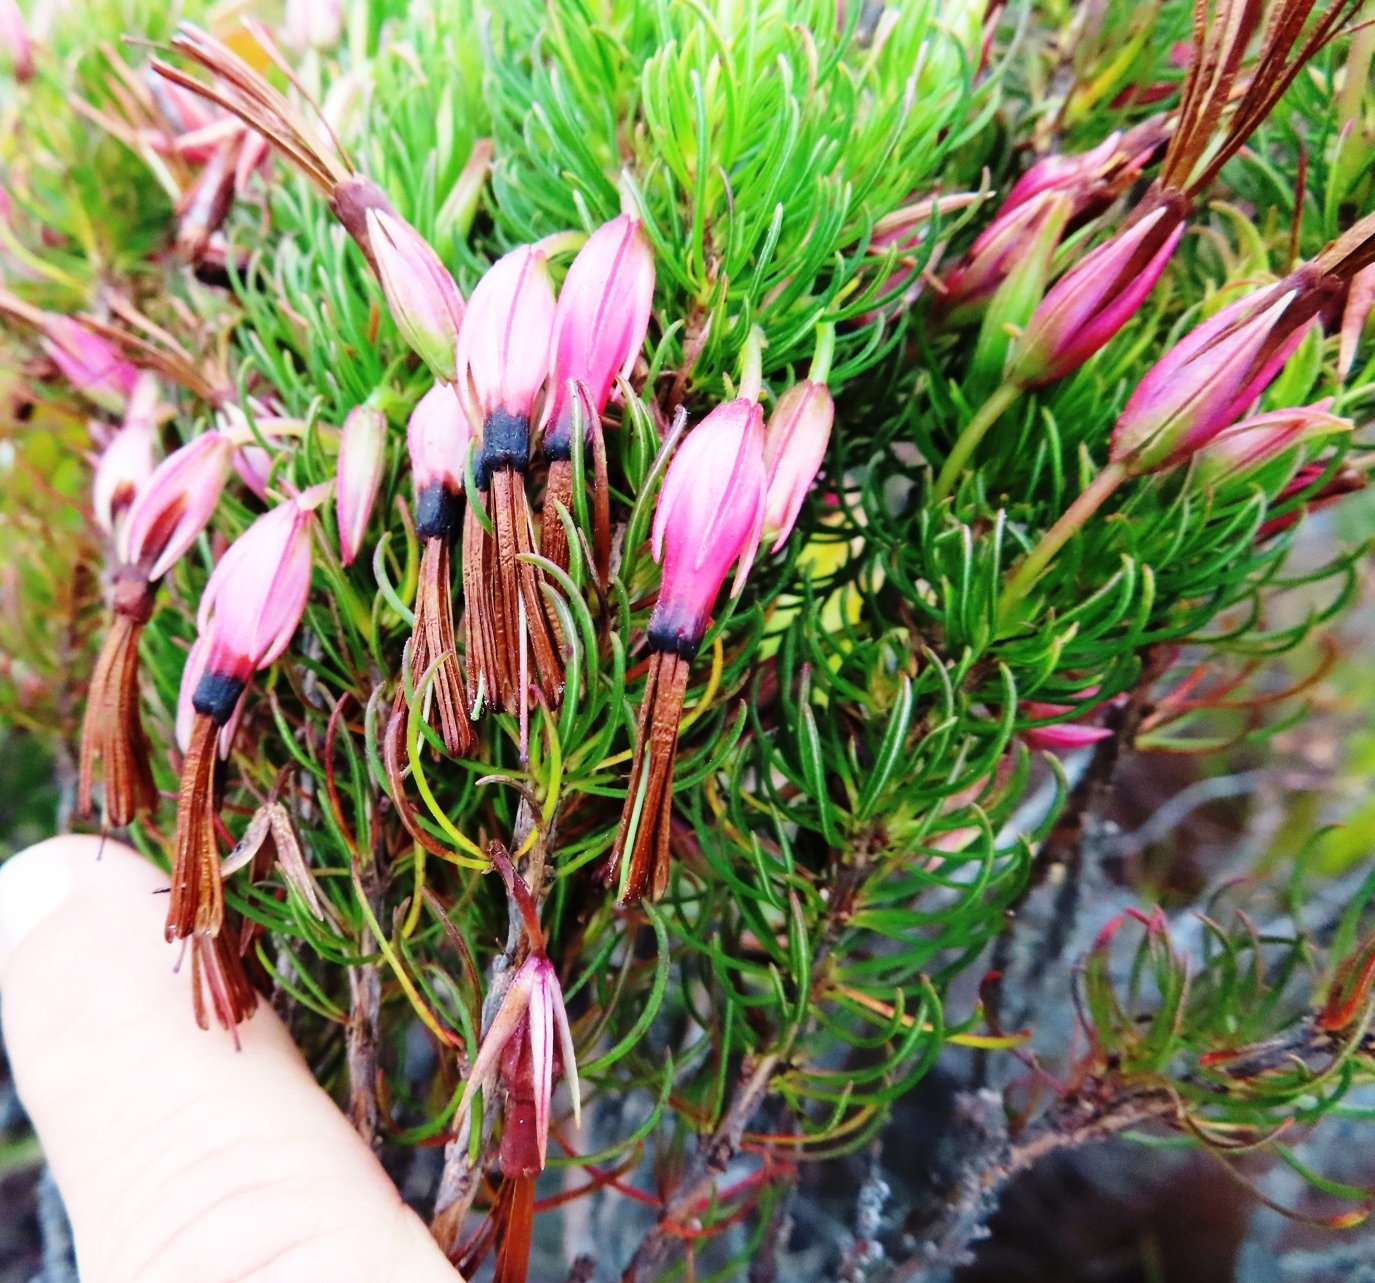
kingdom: Plantae
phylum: Tracheophyta
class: Magnoliopsida
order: Ericales
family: Ericaceae
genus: Erica
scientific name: Erica plukenetii
